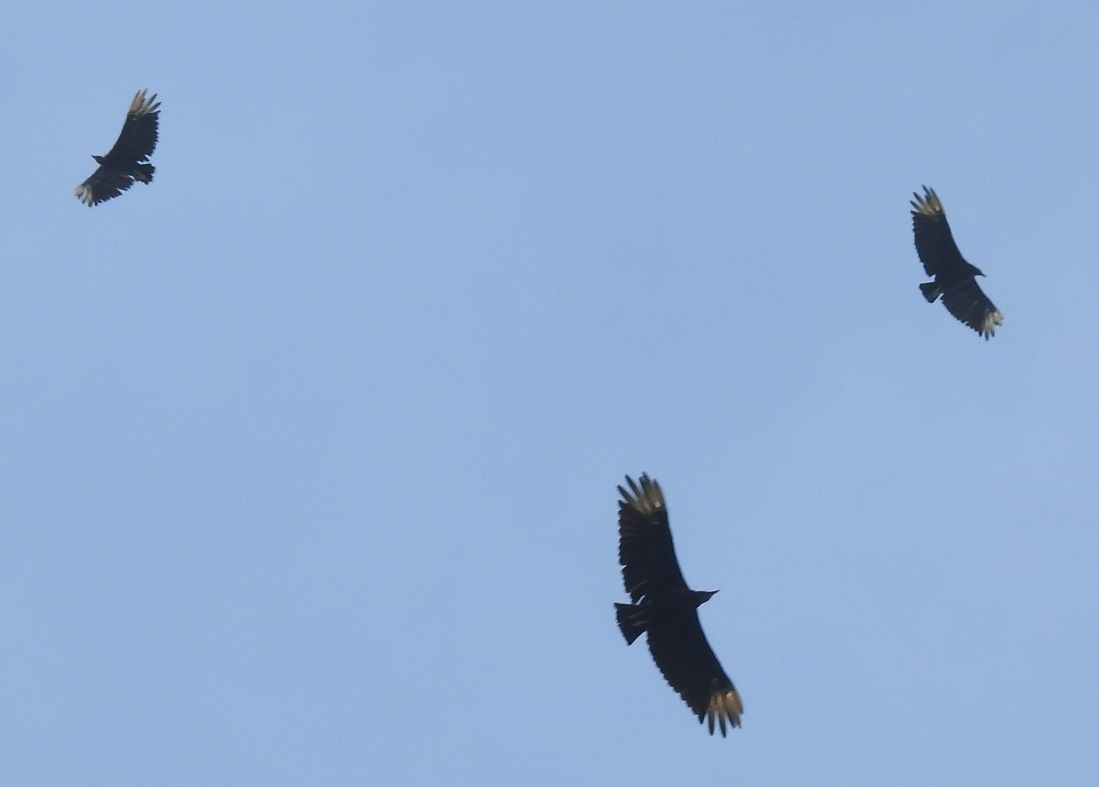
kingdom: Animalia
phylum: Chordata
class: Aves
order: Accipitriformes
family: Cathartidae
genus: Coragyps
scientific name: Coragyps atratus
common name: Black vulture
